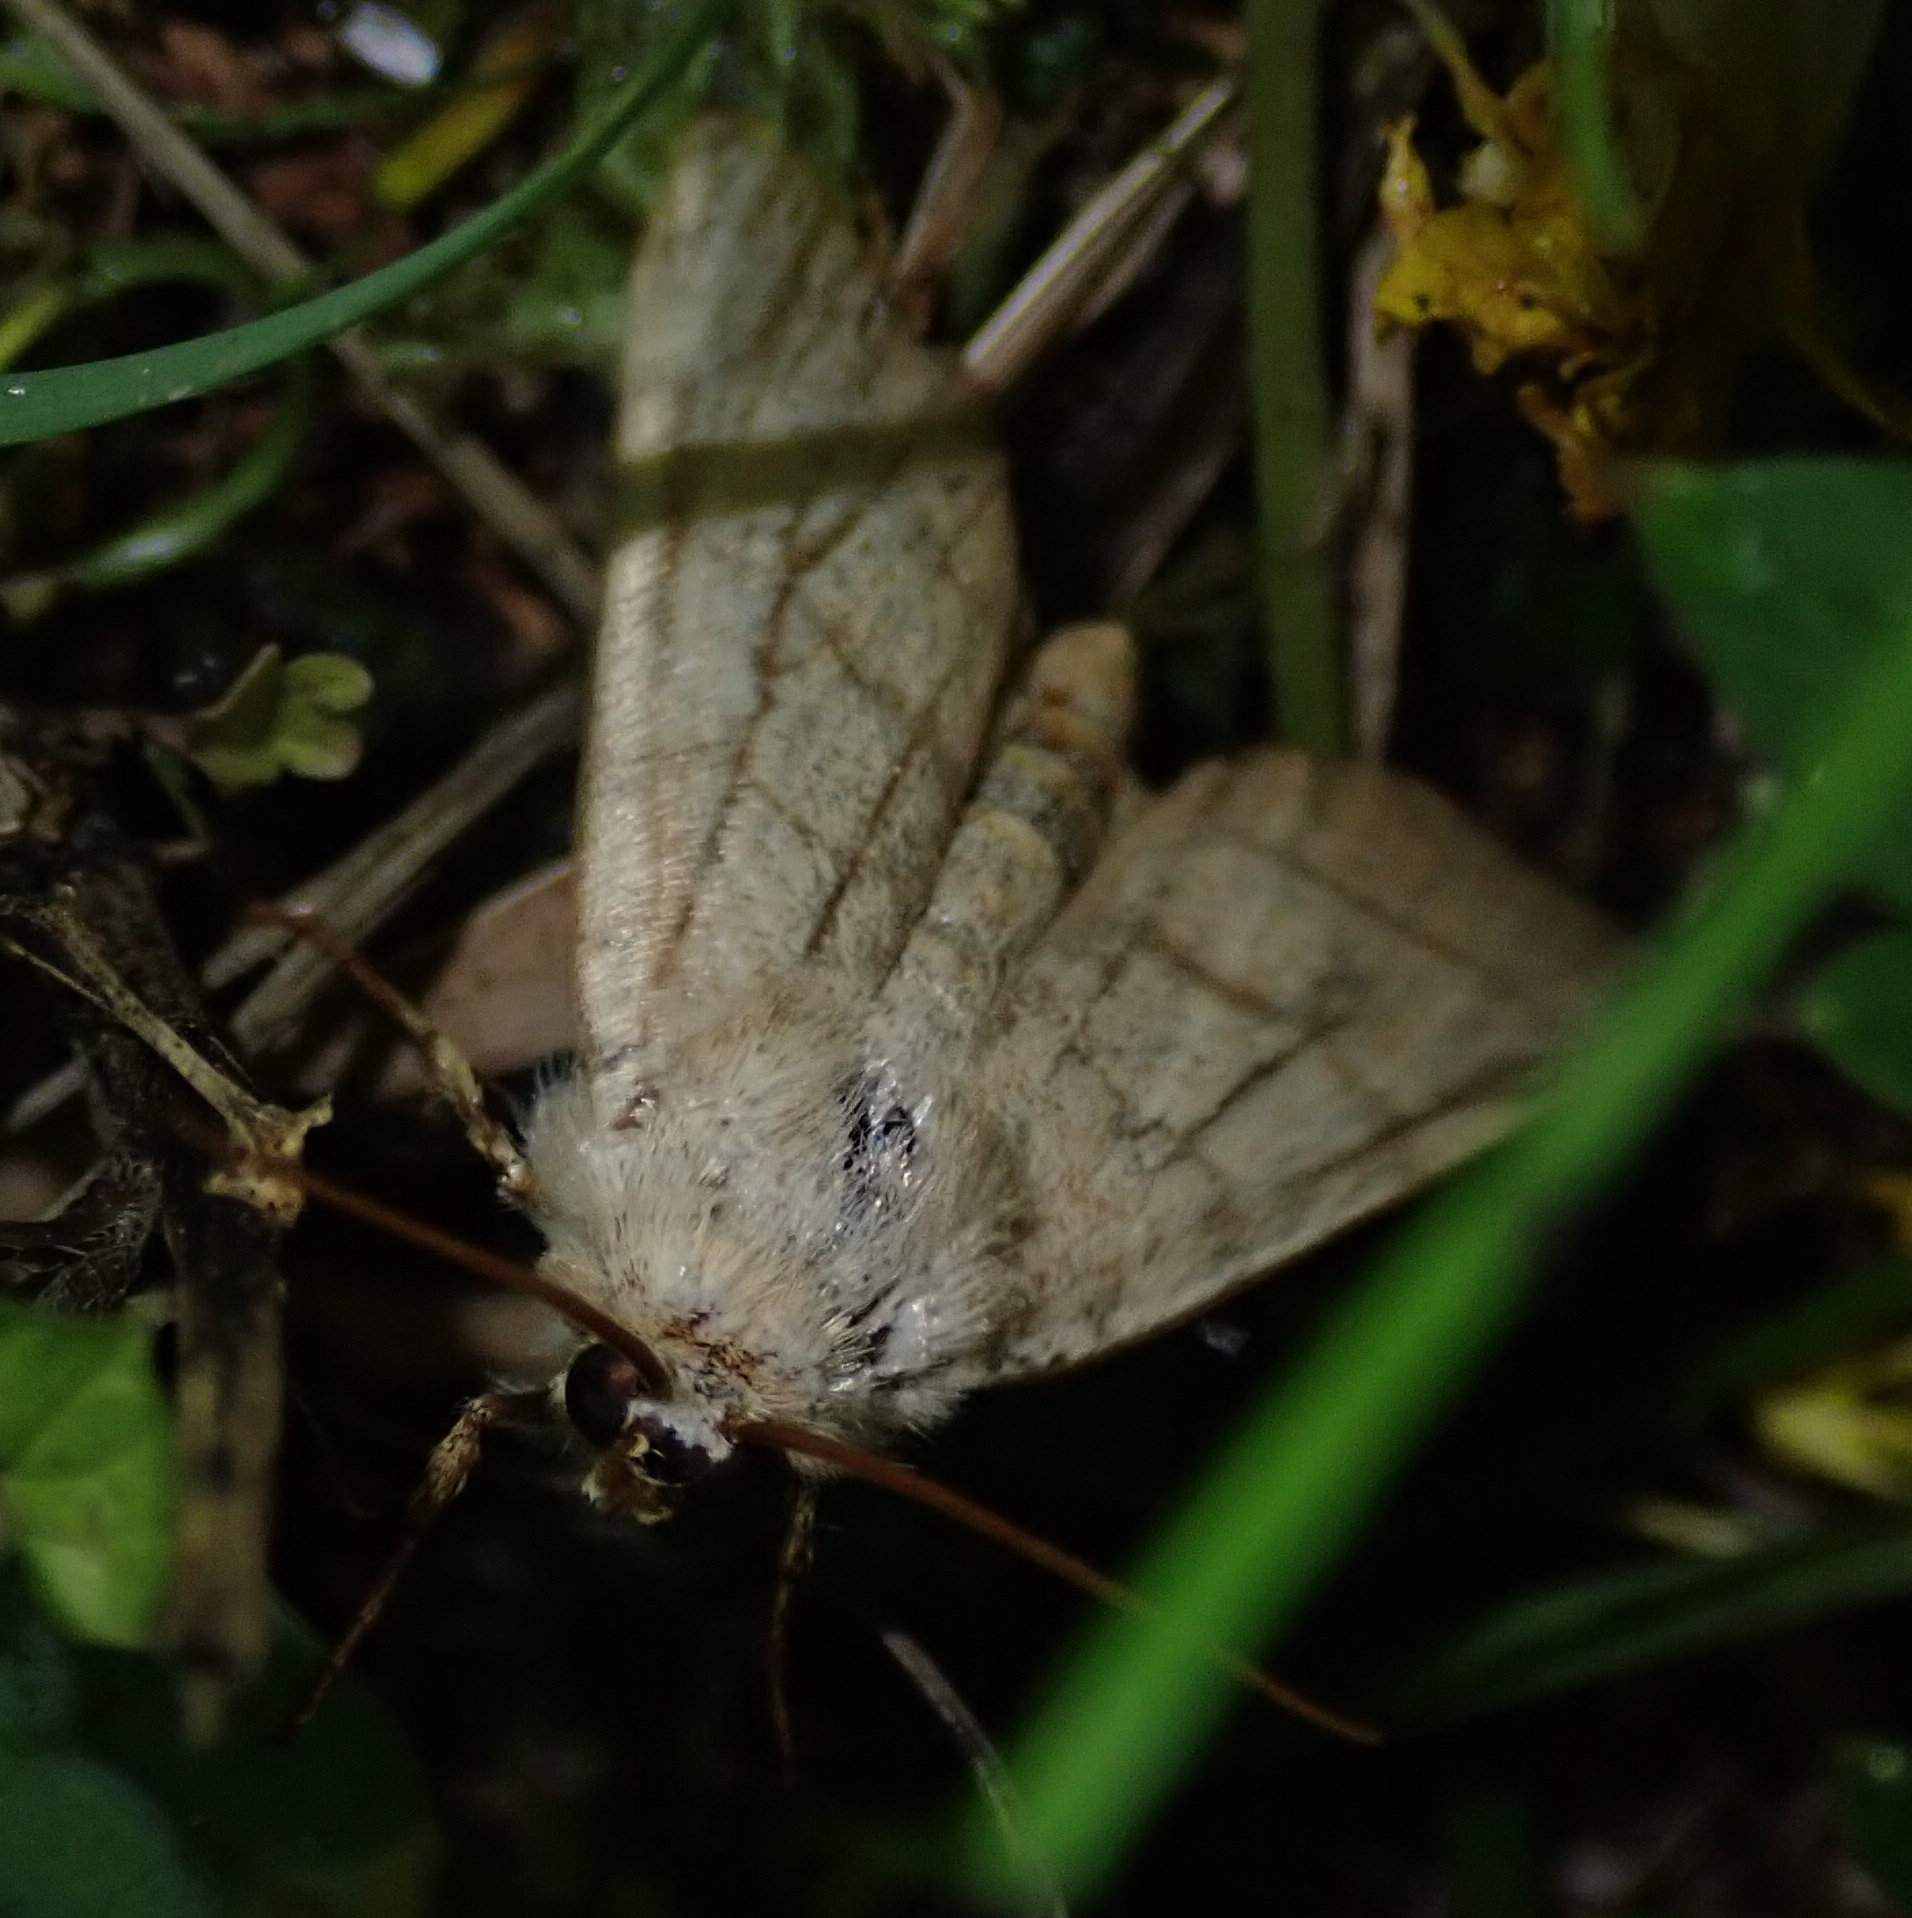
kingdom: Animalia
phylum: Arthropoda
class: Insecta
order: Lepidoptera
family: Noctuidae
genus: Charanyca
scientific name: Charanyca trigrammica
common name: Treble lines
